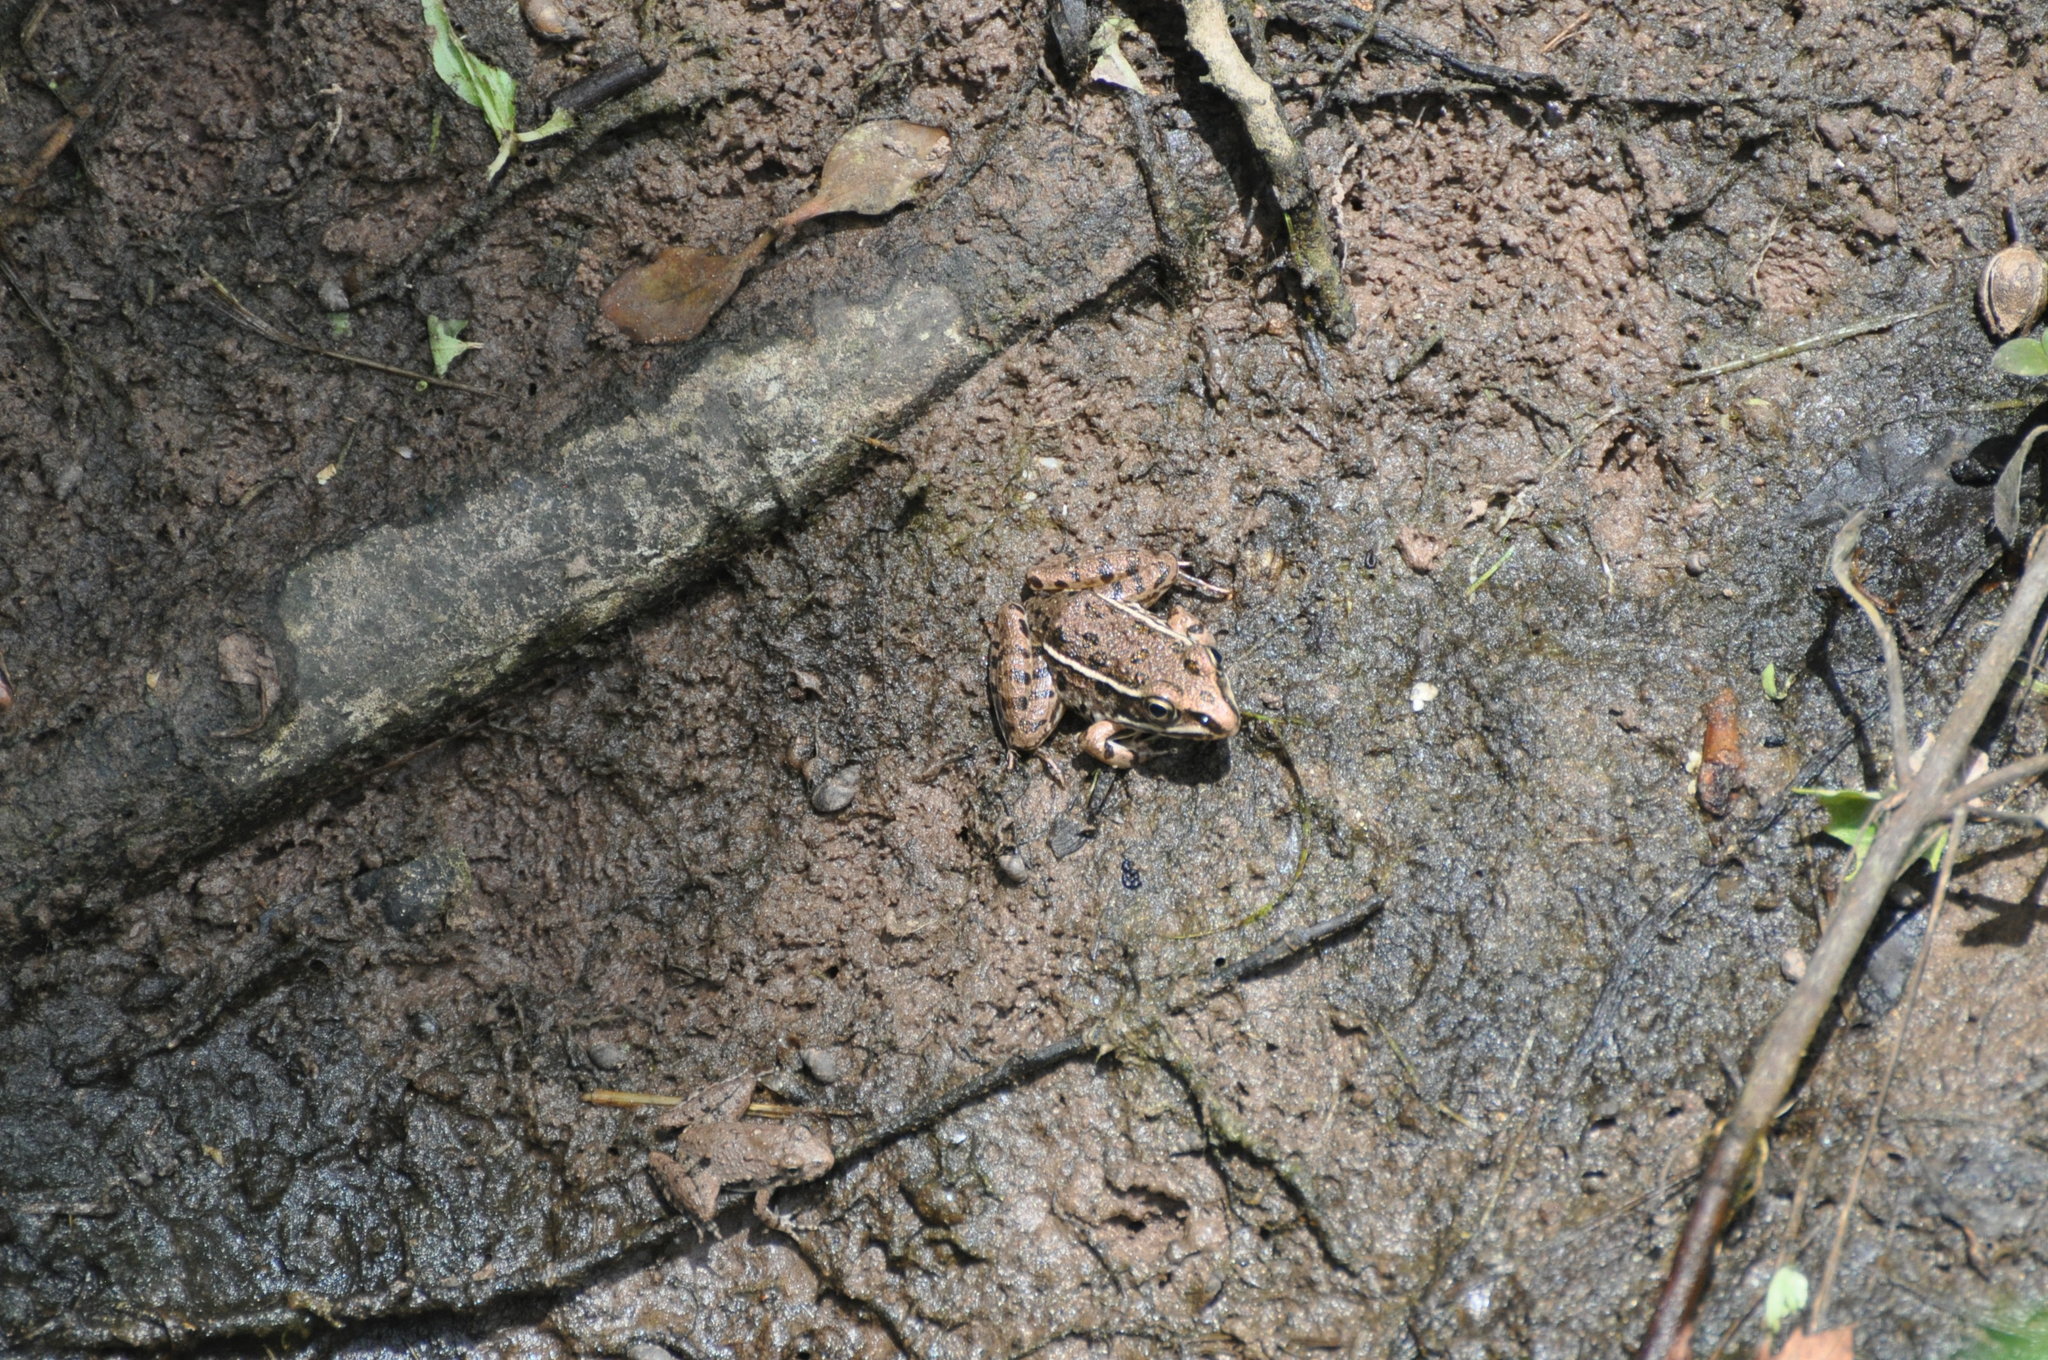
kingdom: Animalia
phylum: Chordata
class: Amphibia
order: Anura
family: Ranidae
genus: Lithobates
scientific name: Lithobates blairi
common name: Plains leopard frog
